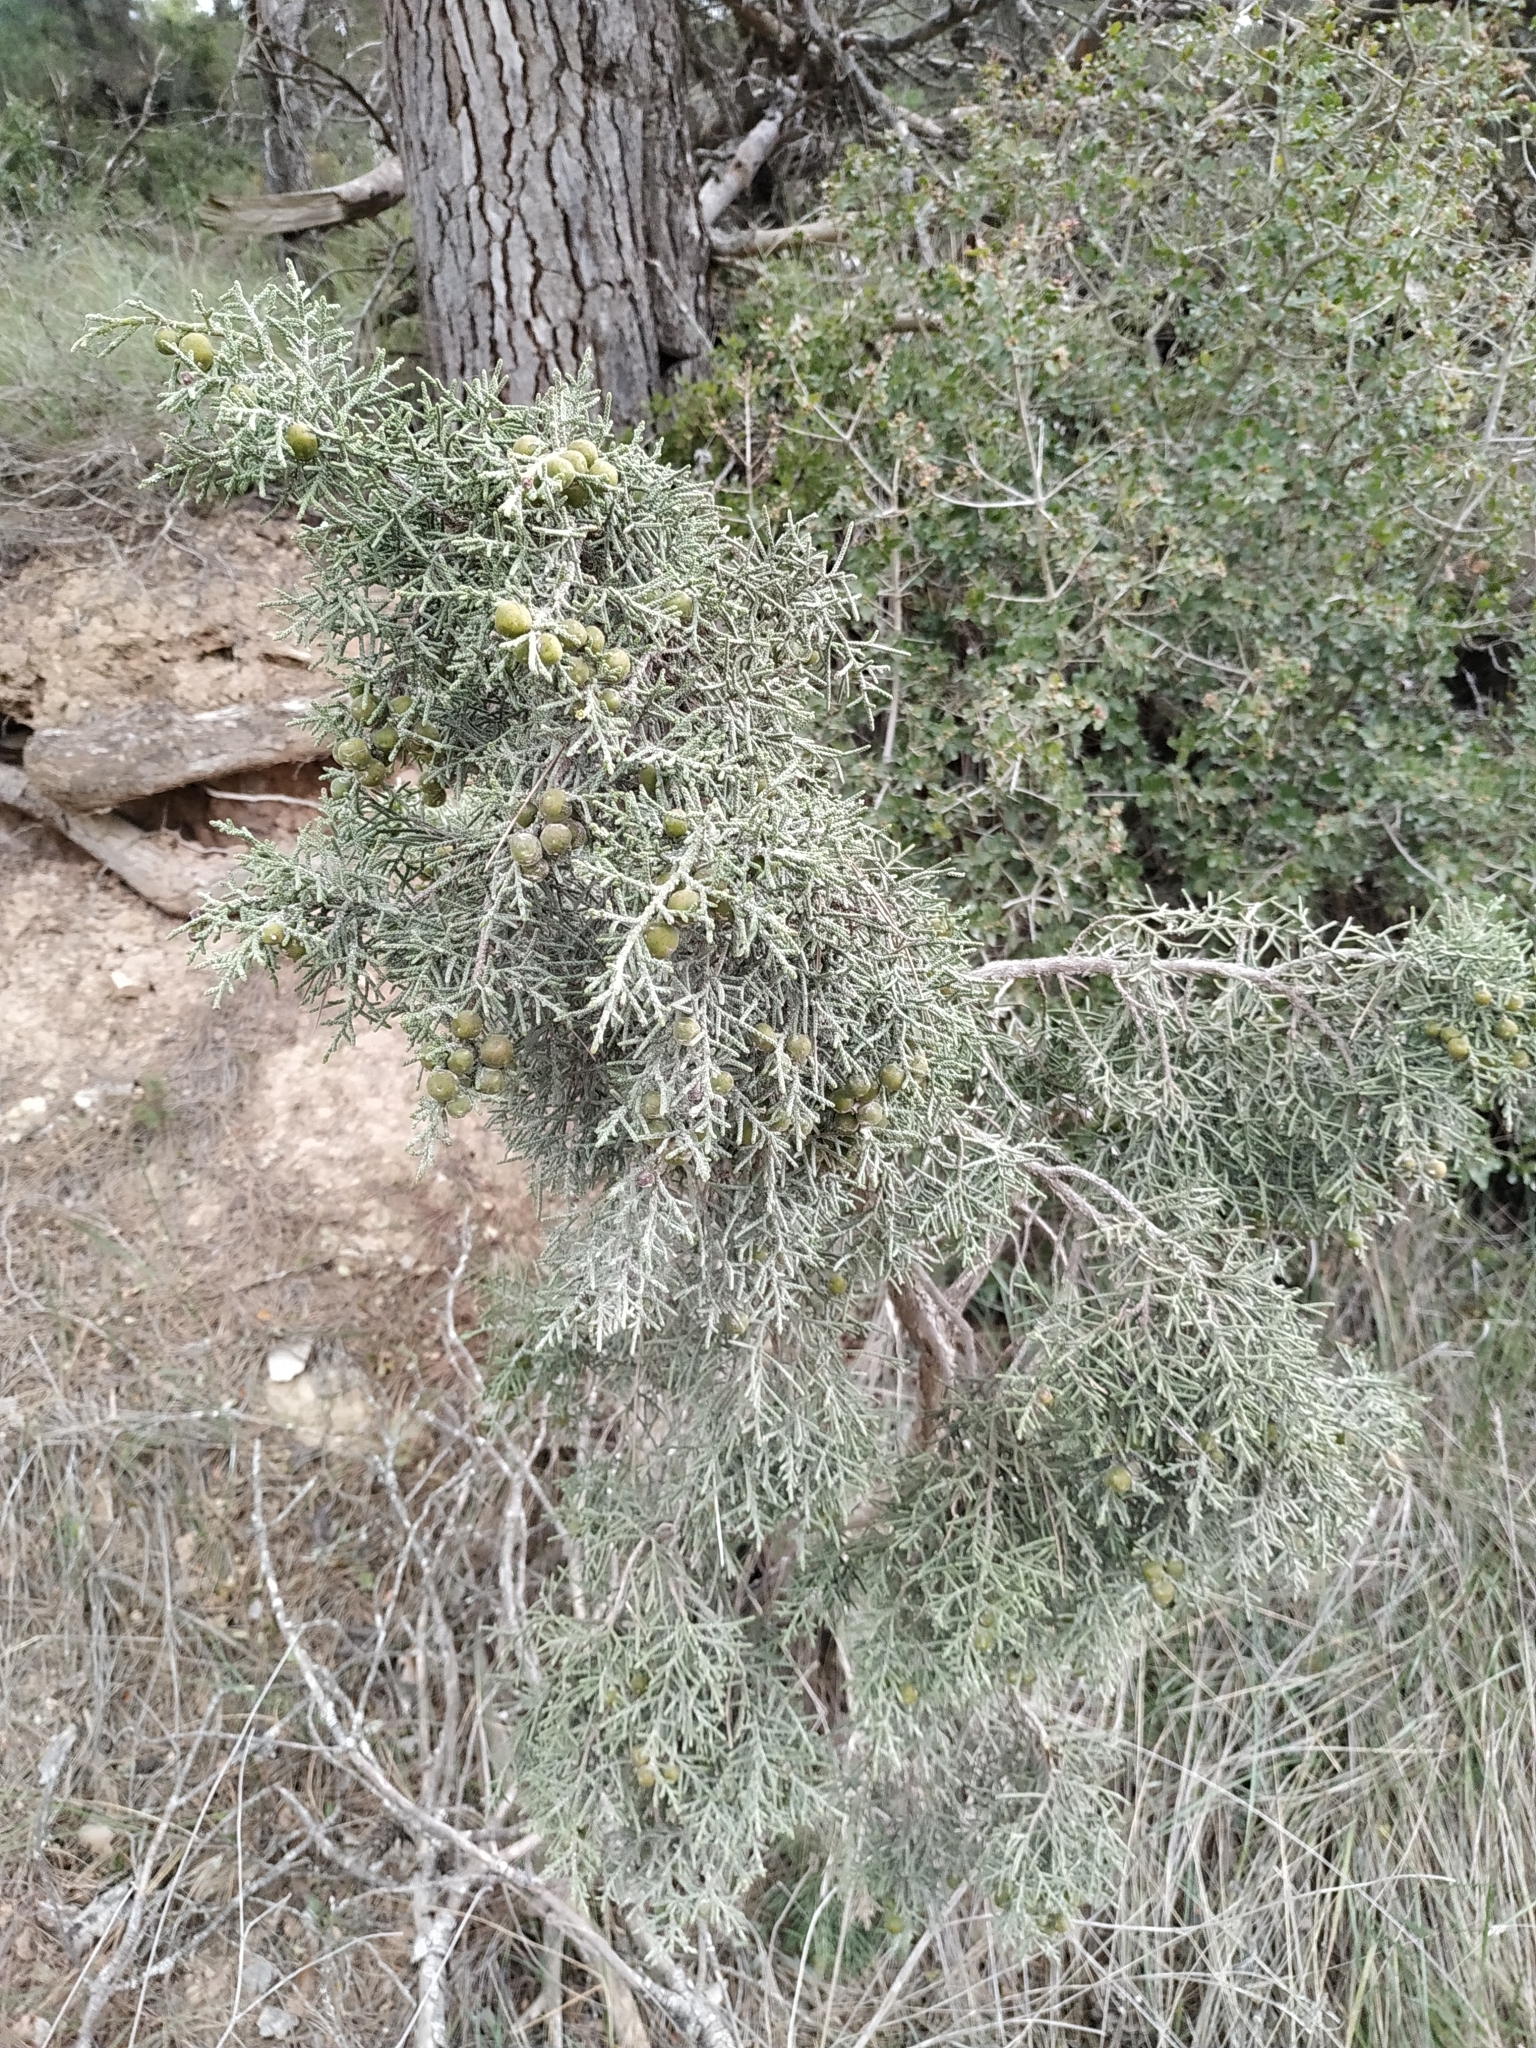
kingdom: Plantae
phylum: Tracheophyta
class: Pinopsida
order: Pinales
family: Cupressaceae
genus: Juniperus
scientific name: Juniperus phoenicea
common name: Phoenician juniper
